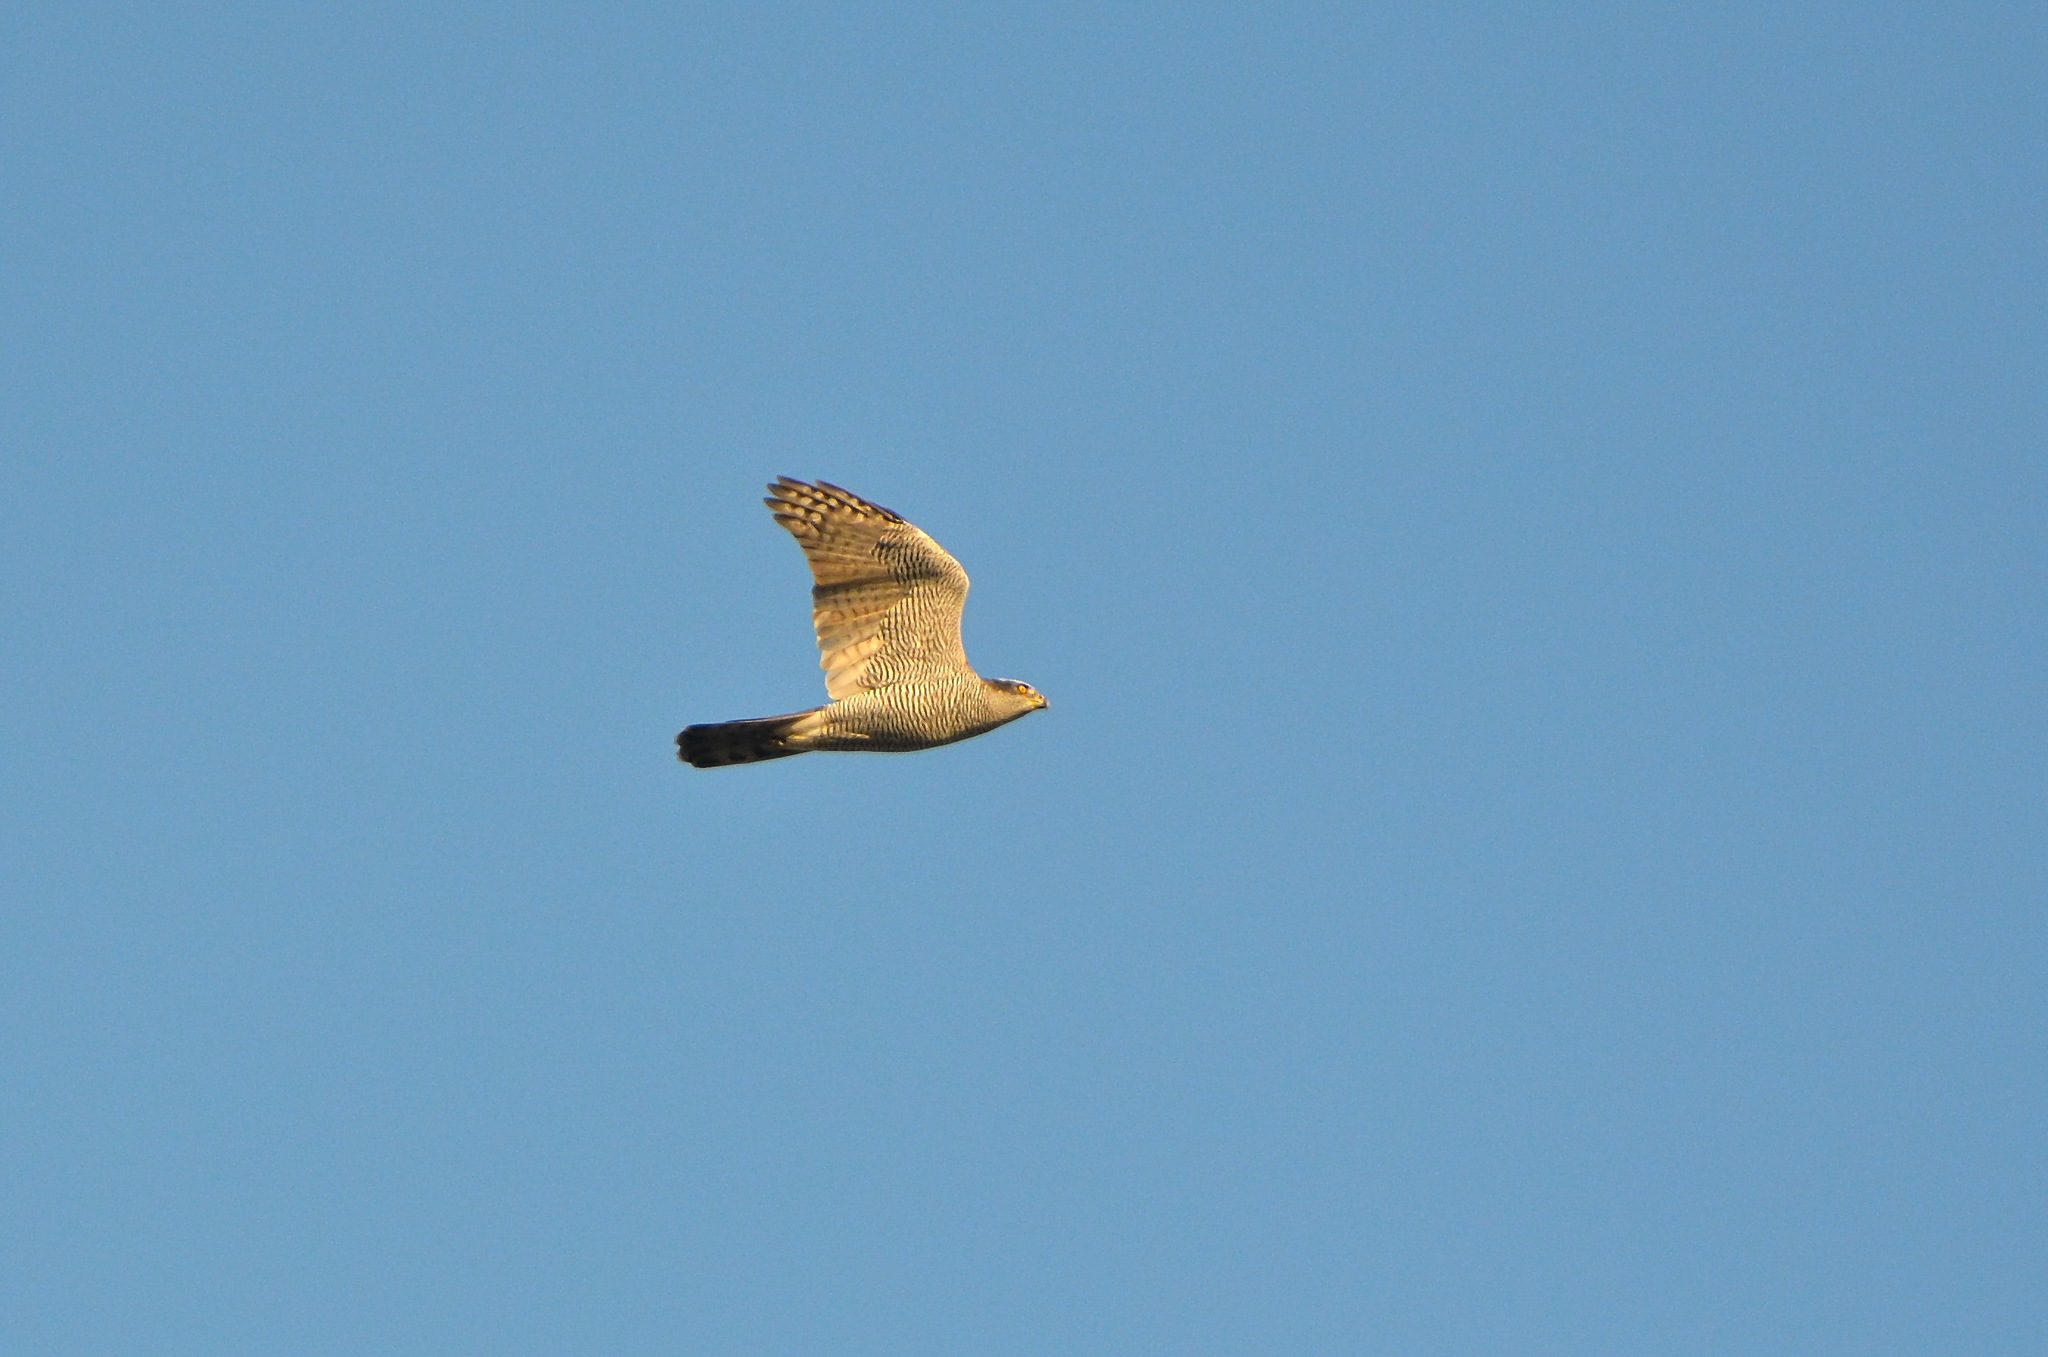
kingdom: Animalia
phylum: Chordata
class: Aves
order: Accipitriformes
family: Accipitridae
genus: Accipiter
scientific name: Accipiter gentilis
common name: Northern goshawk
